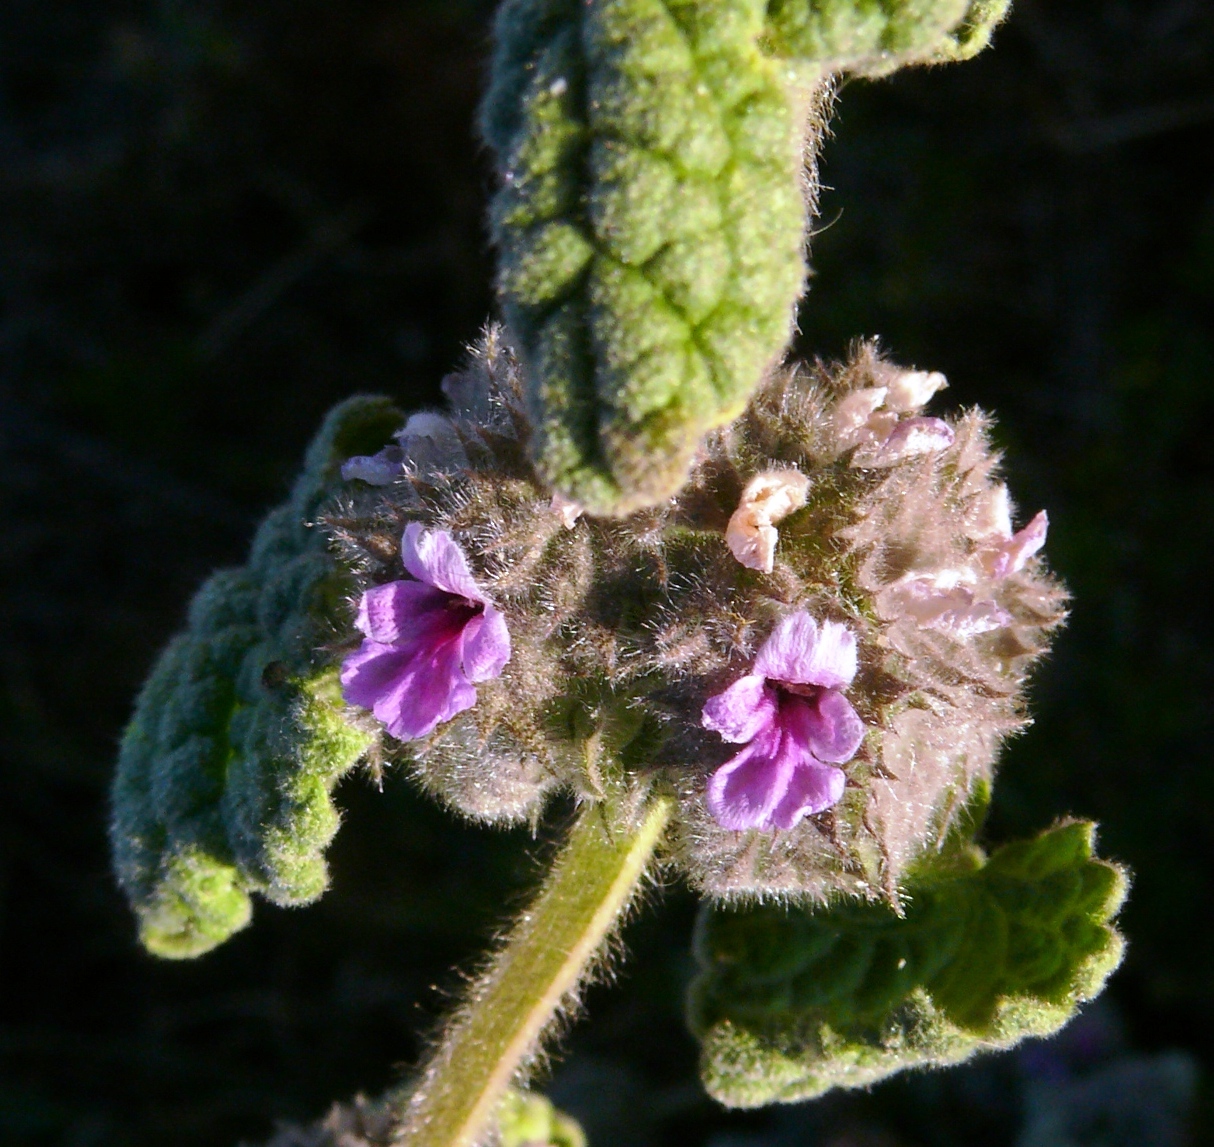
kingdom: Plantae
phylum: Tracheophyta
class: Magnoliopsida
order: Lamiales
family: Lamiaceae
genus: Pseudodictamnus
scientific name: Pseudodictamnus africanus
